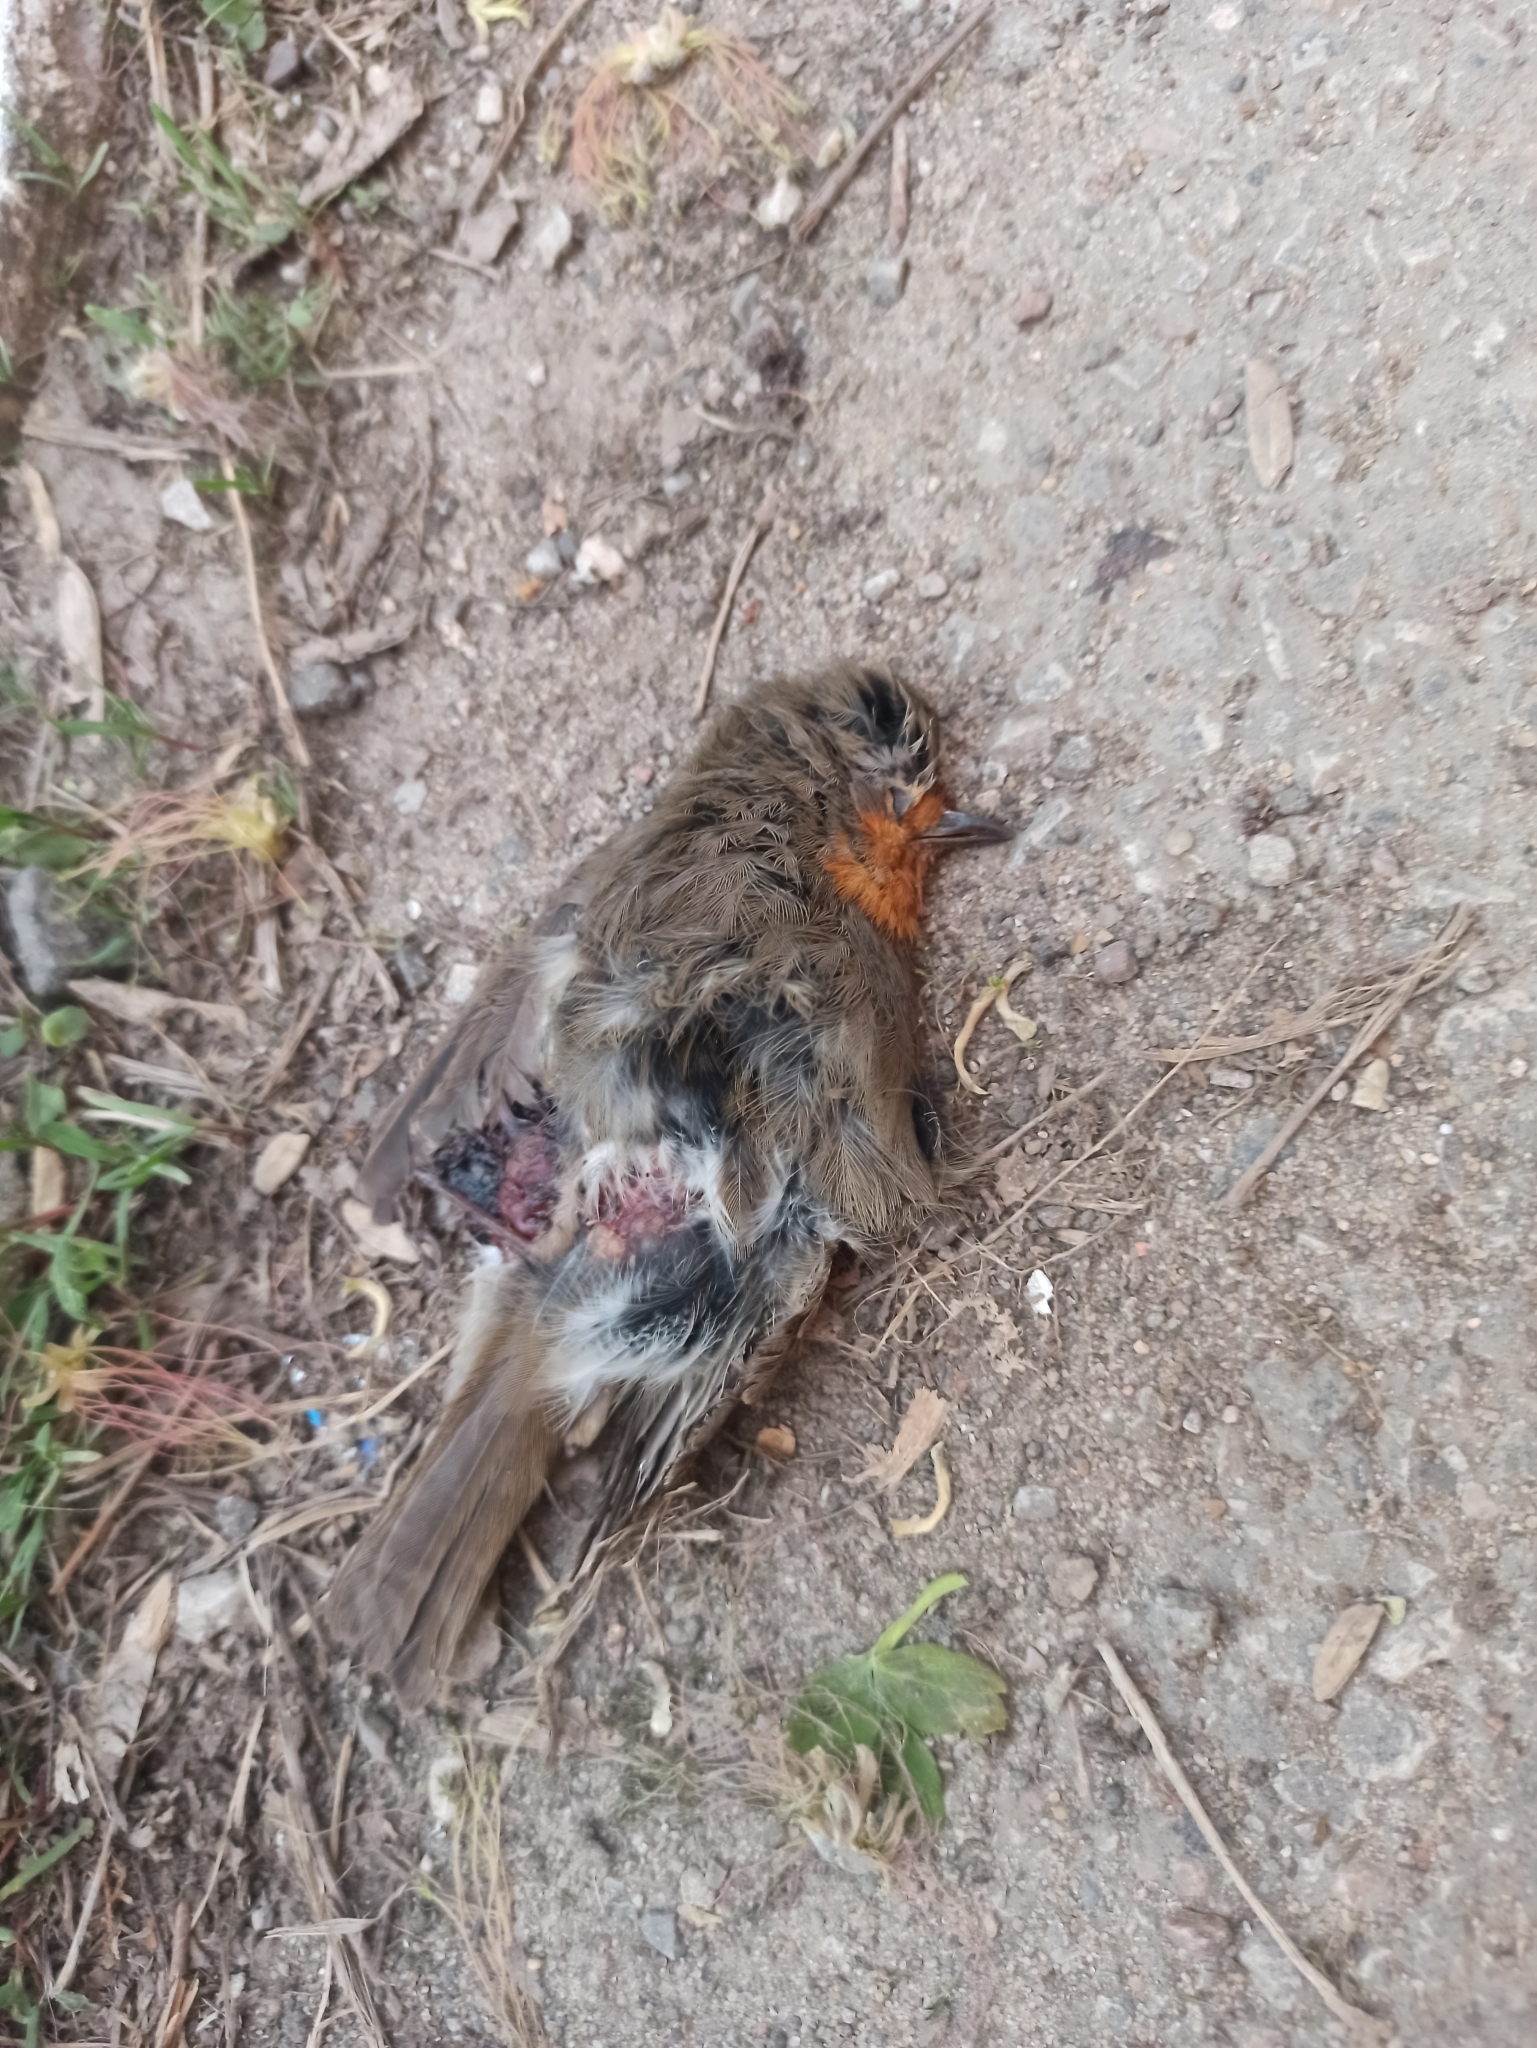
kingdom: Animalia
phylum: Chordata
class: Aves
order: Passeriformes
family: Muscicapidae
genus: Erithacus
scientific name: Erithacus rubecula
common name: European robin
